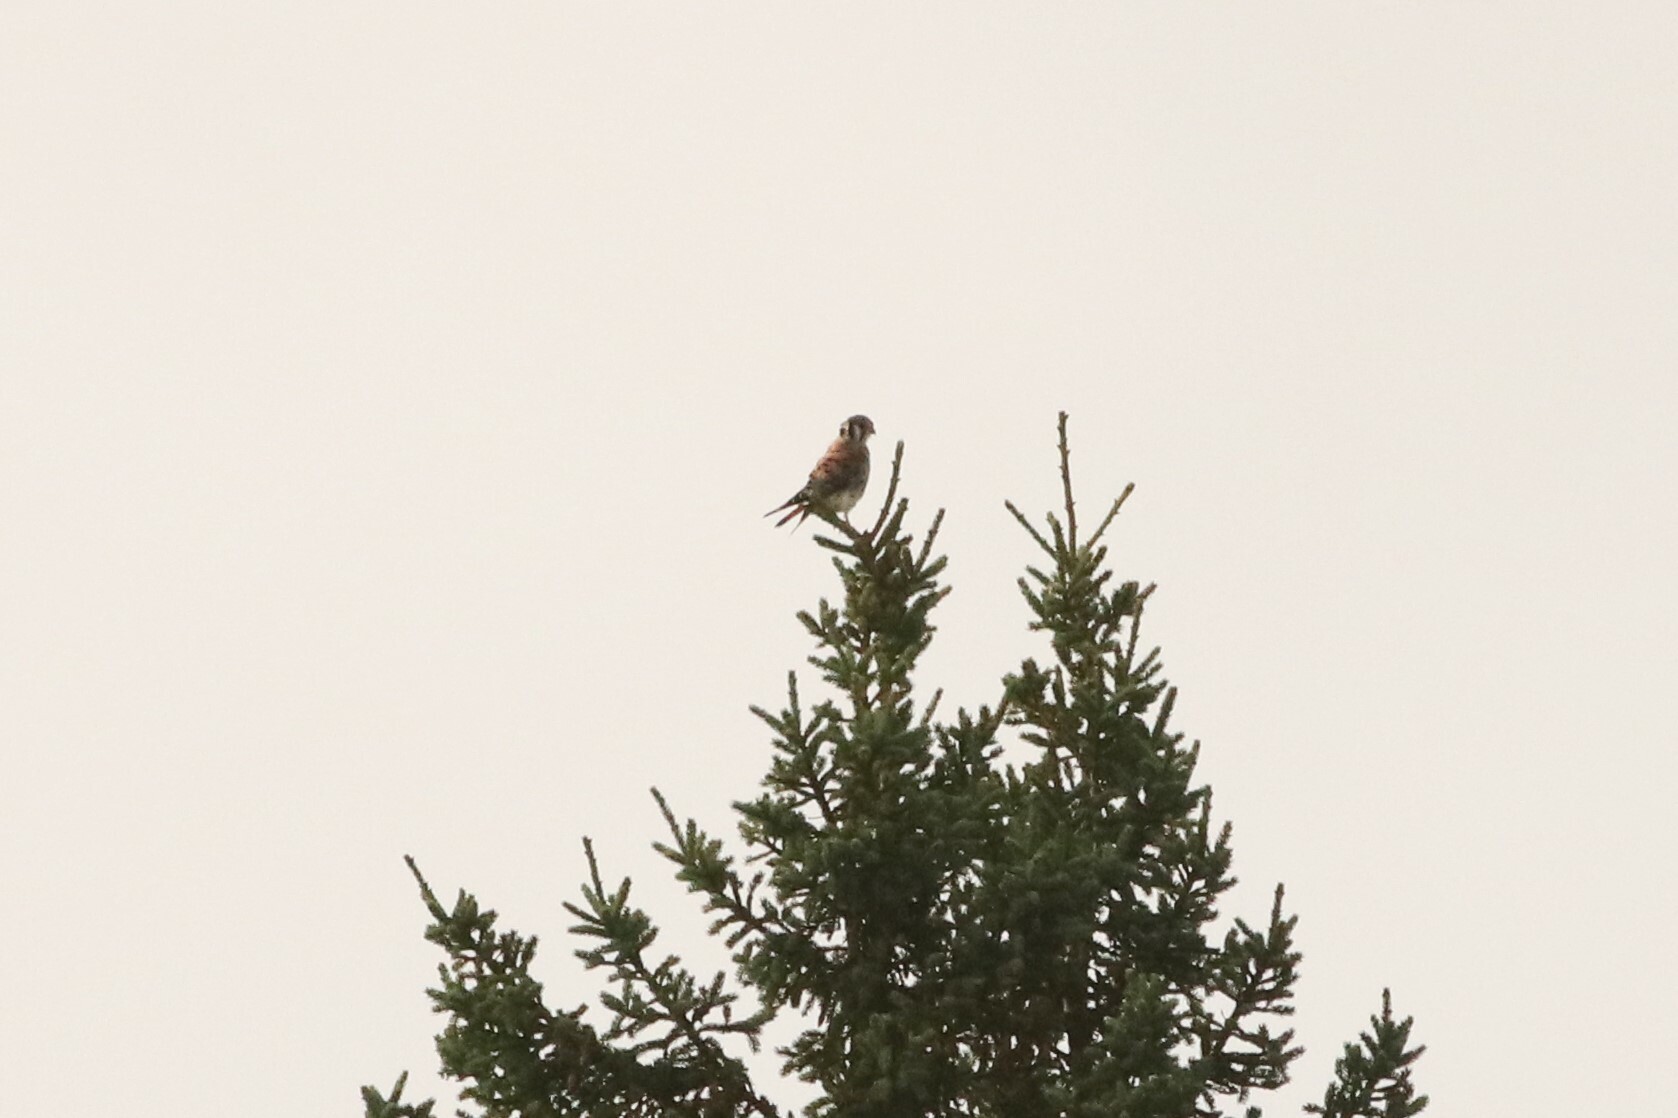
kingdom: Animalia
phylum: Chordata
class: Aves
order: Falconiformes
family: Falconidae
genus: Falco
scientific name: Falco sparverius
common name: American kestrel
